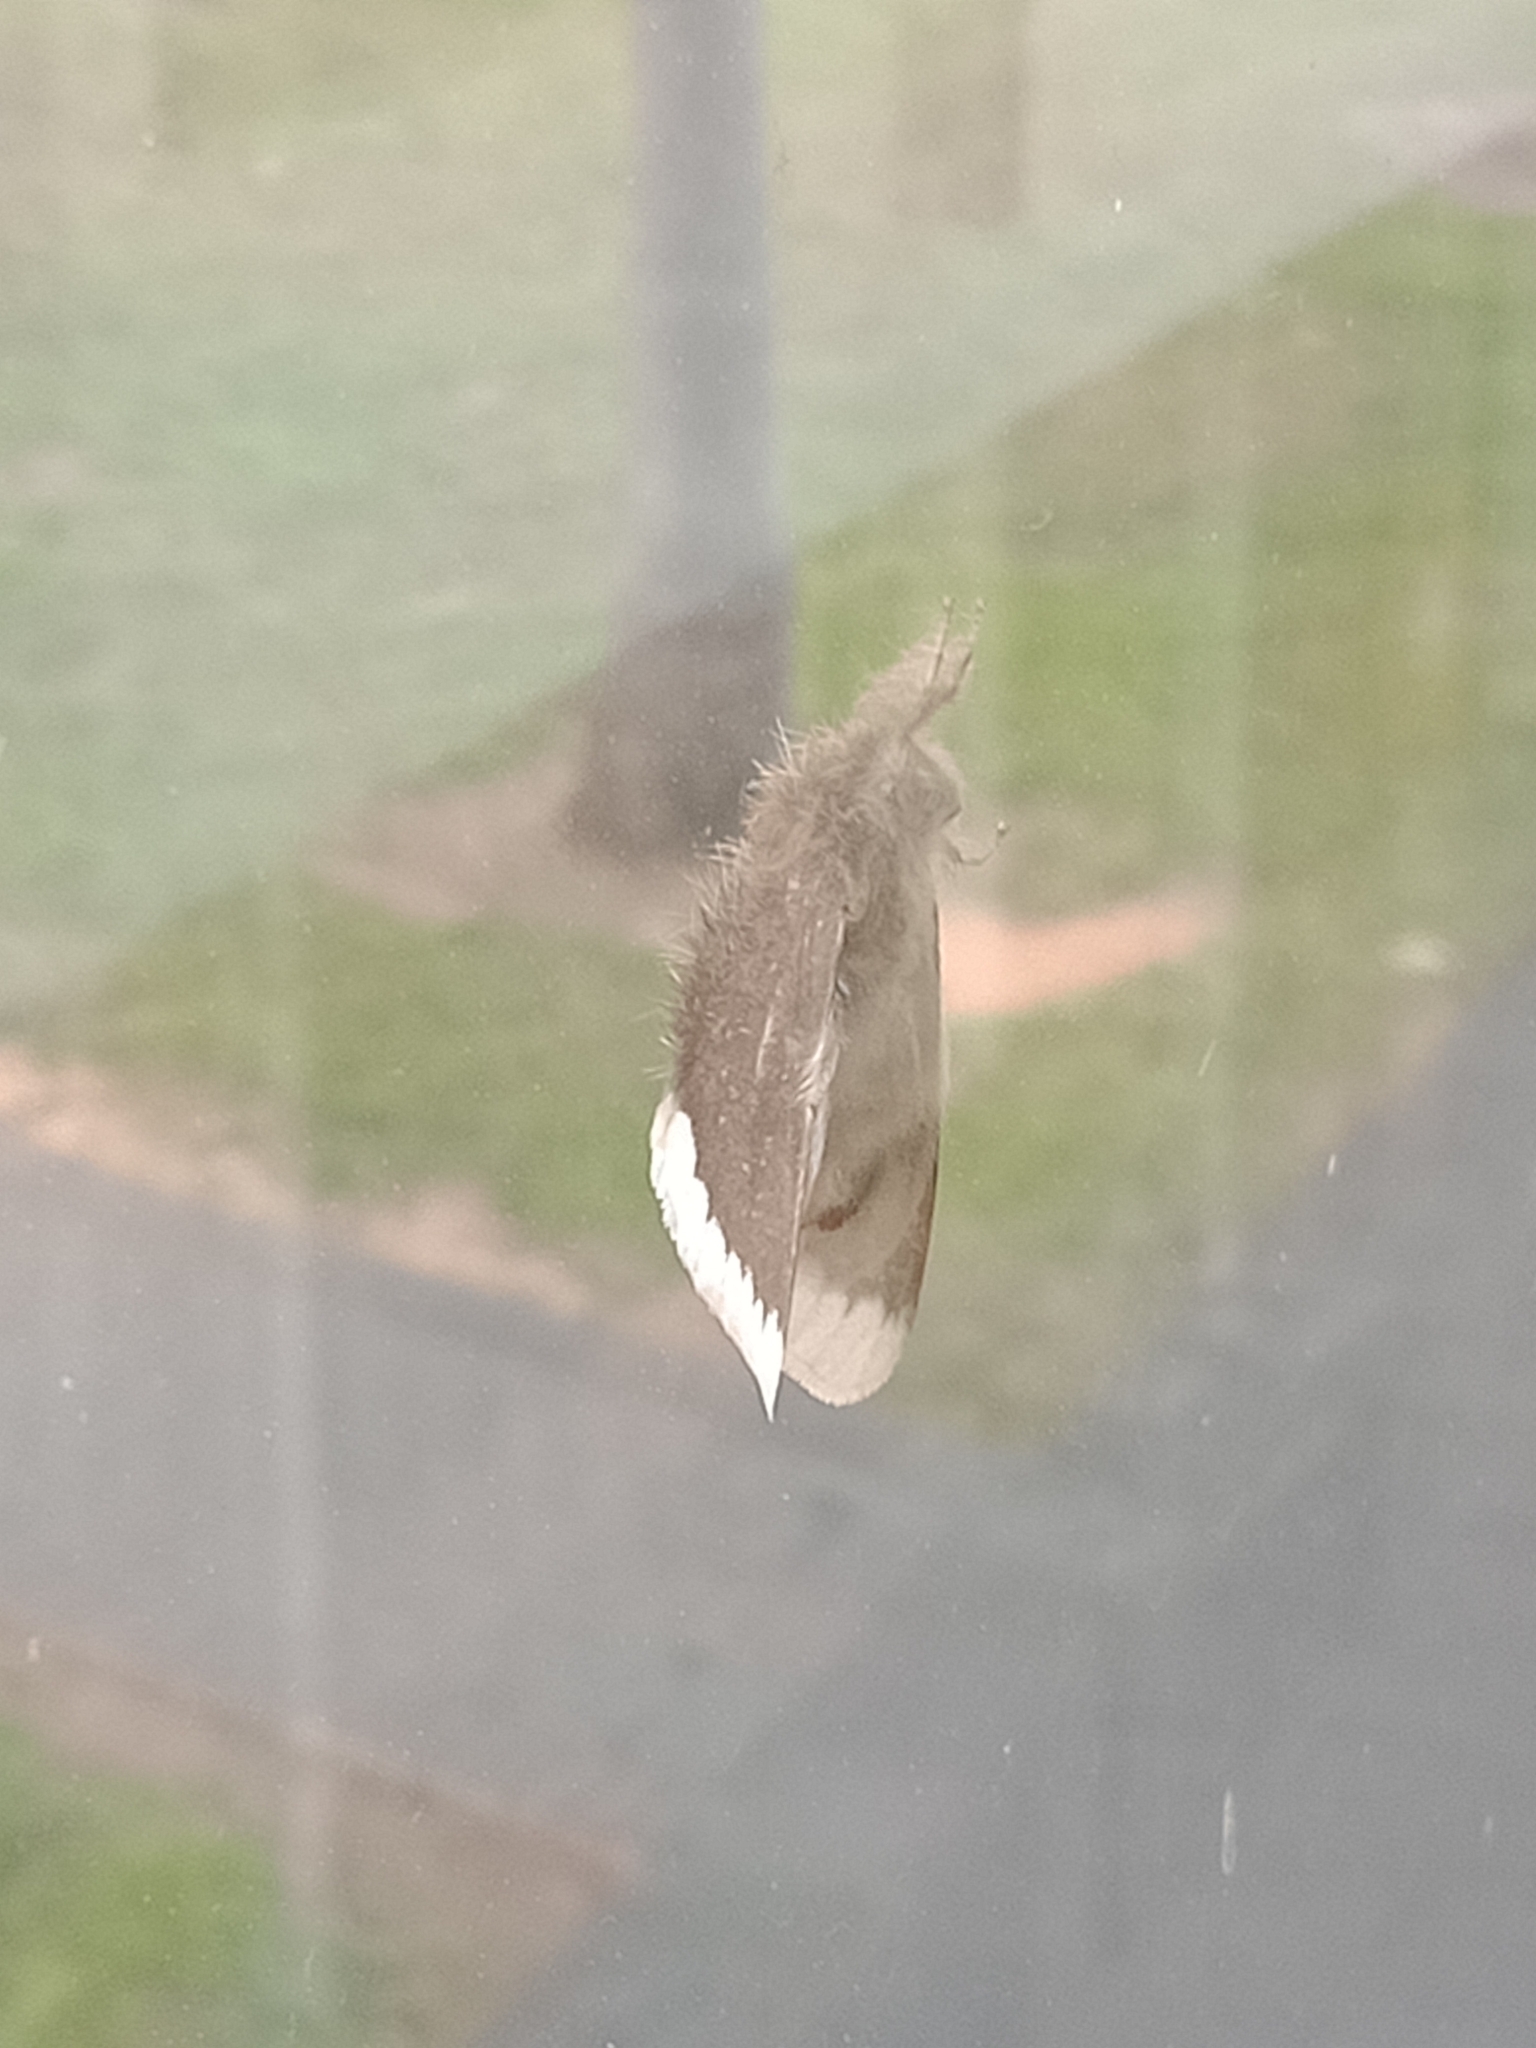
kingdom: Animalia
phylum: Arthropoda
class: Insecta
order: Lepidoptera
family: Erebidae
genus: Euproctis
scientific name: Euproctis
